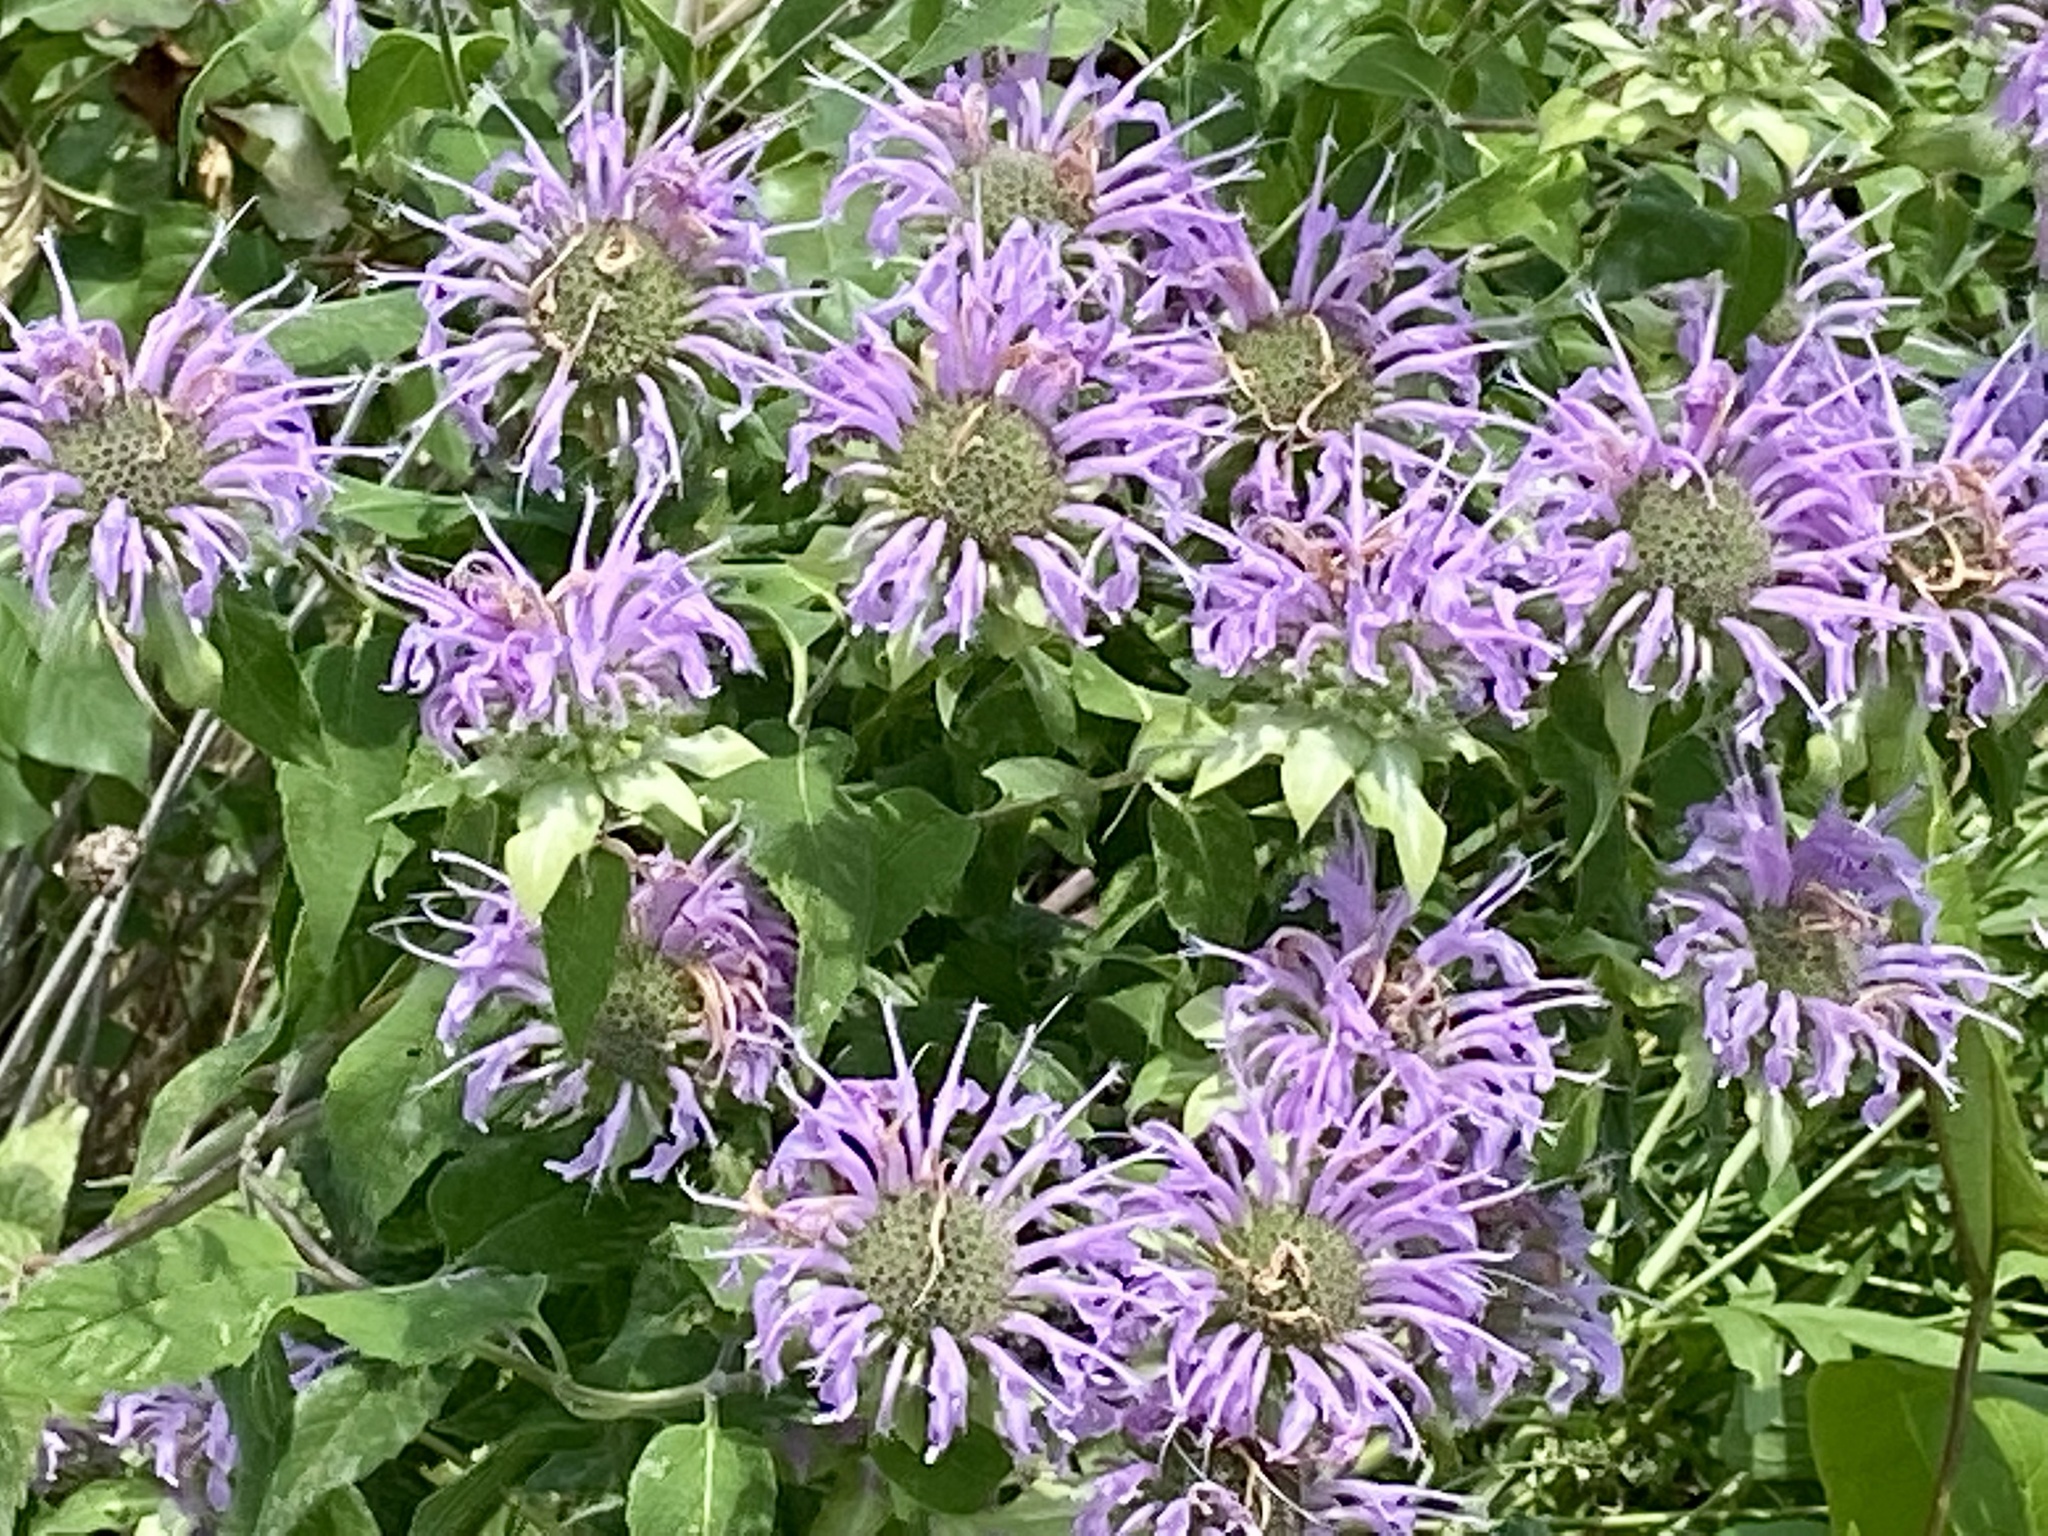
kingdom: Plantae
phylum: Tracheophyta
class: Magnoliopsida
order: Lamiales
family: Lamiaceae
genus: Monarda
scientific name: Monarda fistulosa
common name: Purple beebalm
